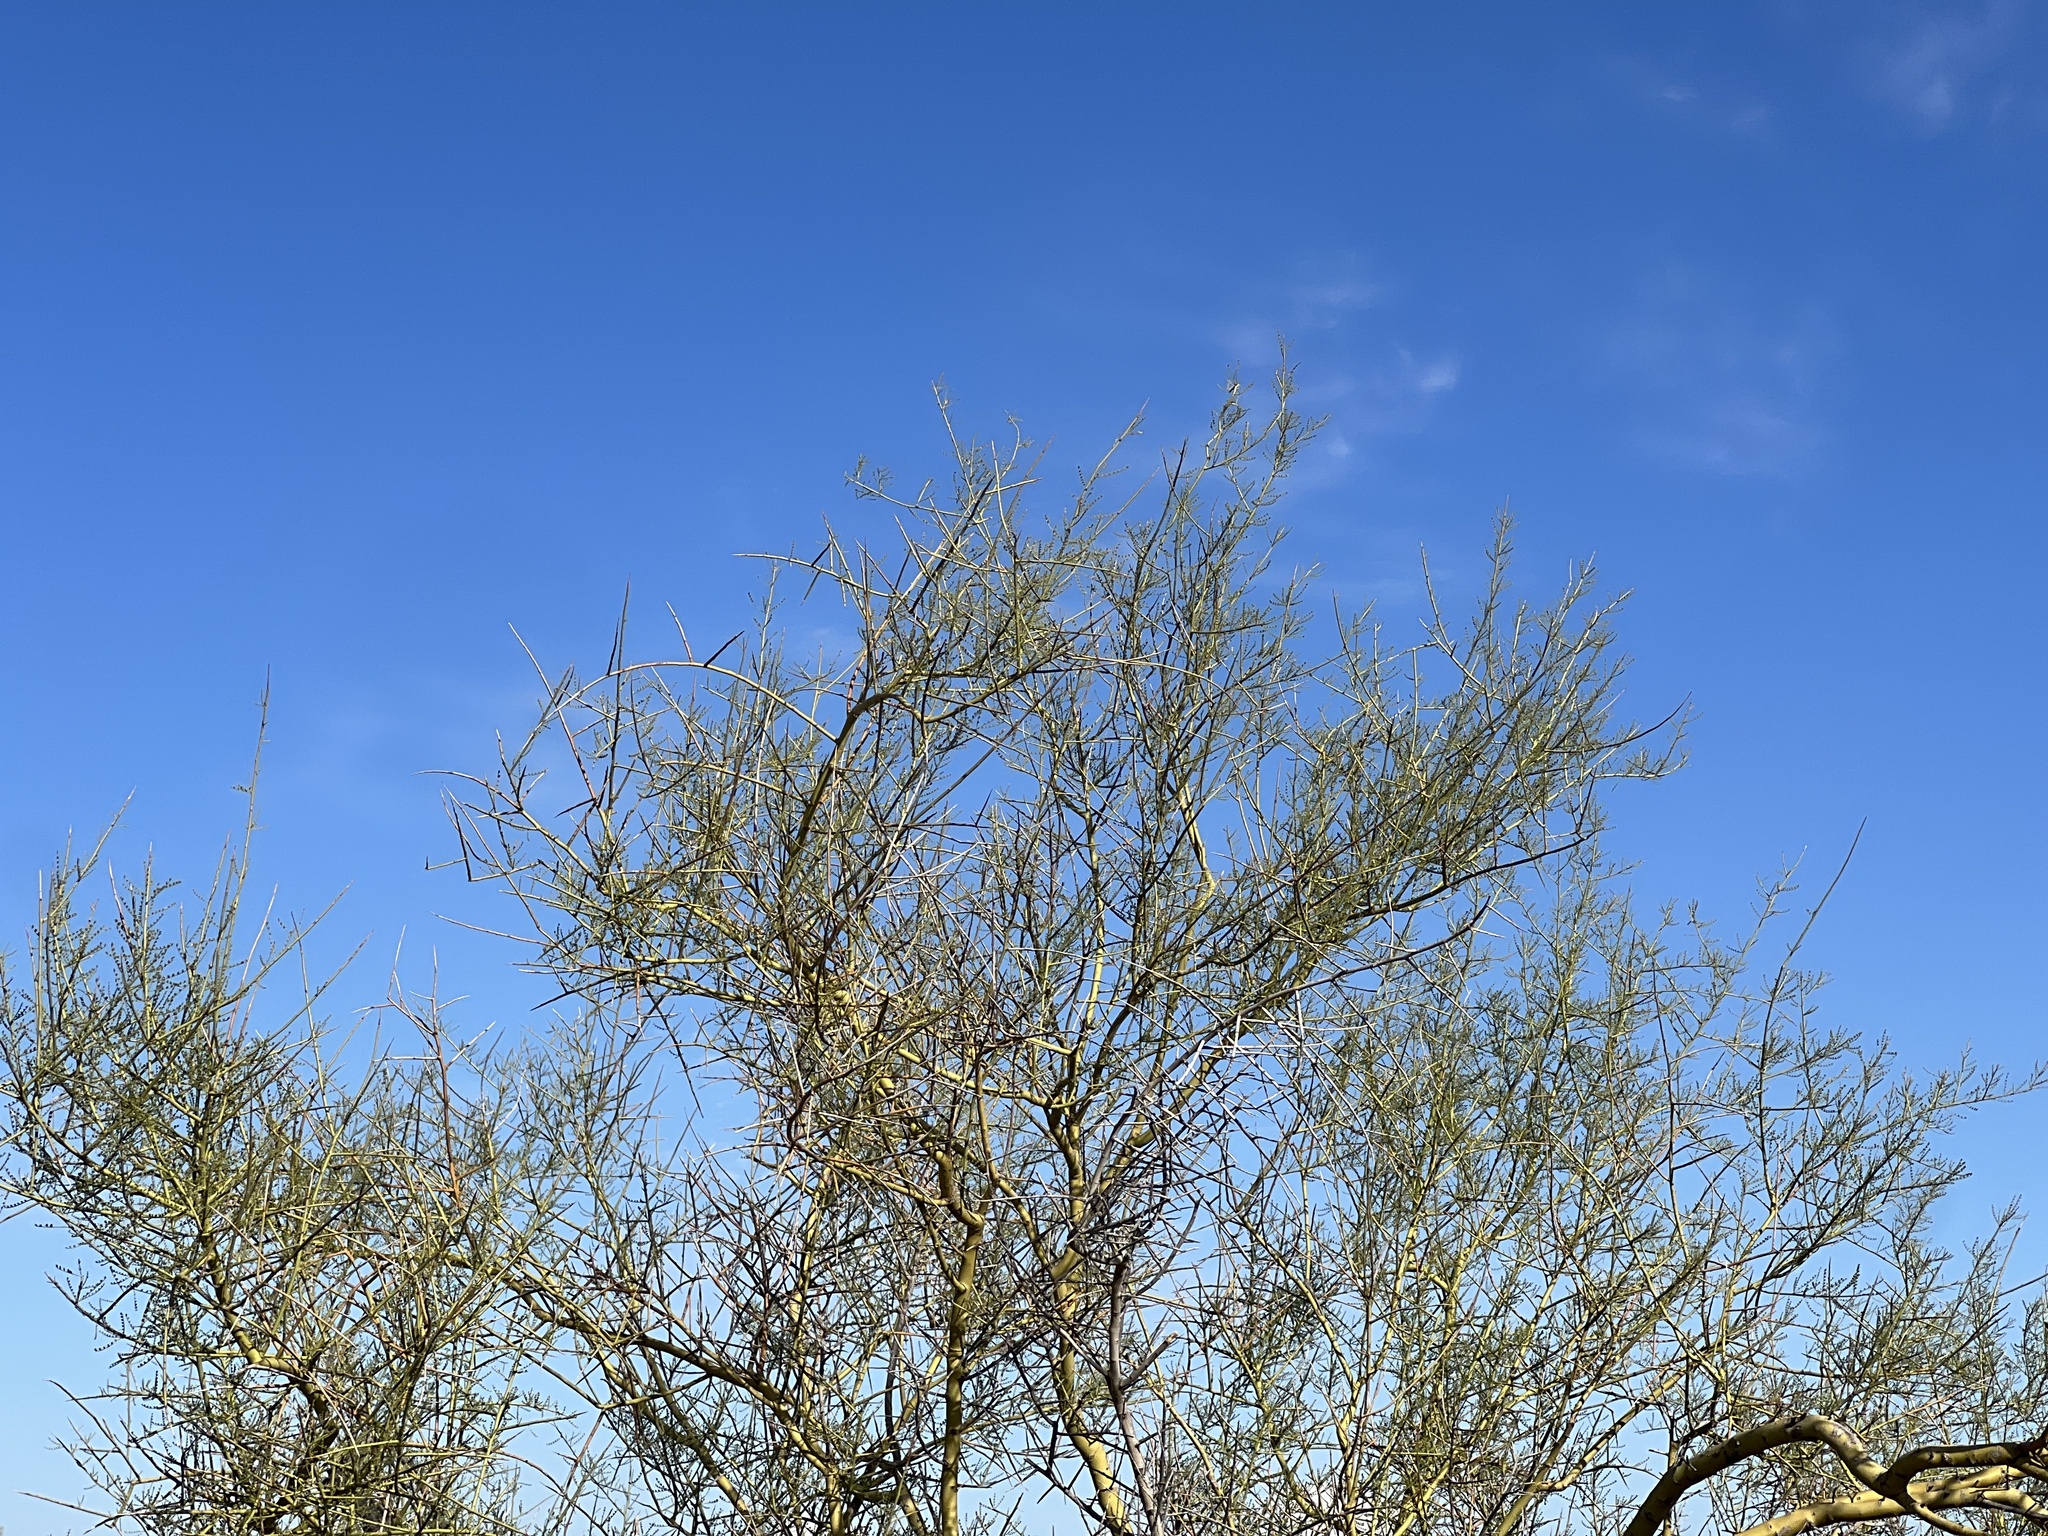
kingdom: Plantae
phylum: Tracheophyta
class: Magnoliopsida
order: Fabales
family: Fabaceae
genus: Parkinsonia
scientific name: Parkinsonia florida
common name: Blue paloverde
